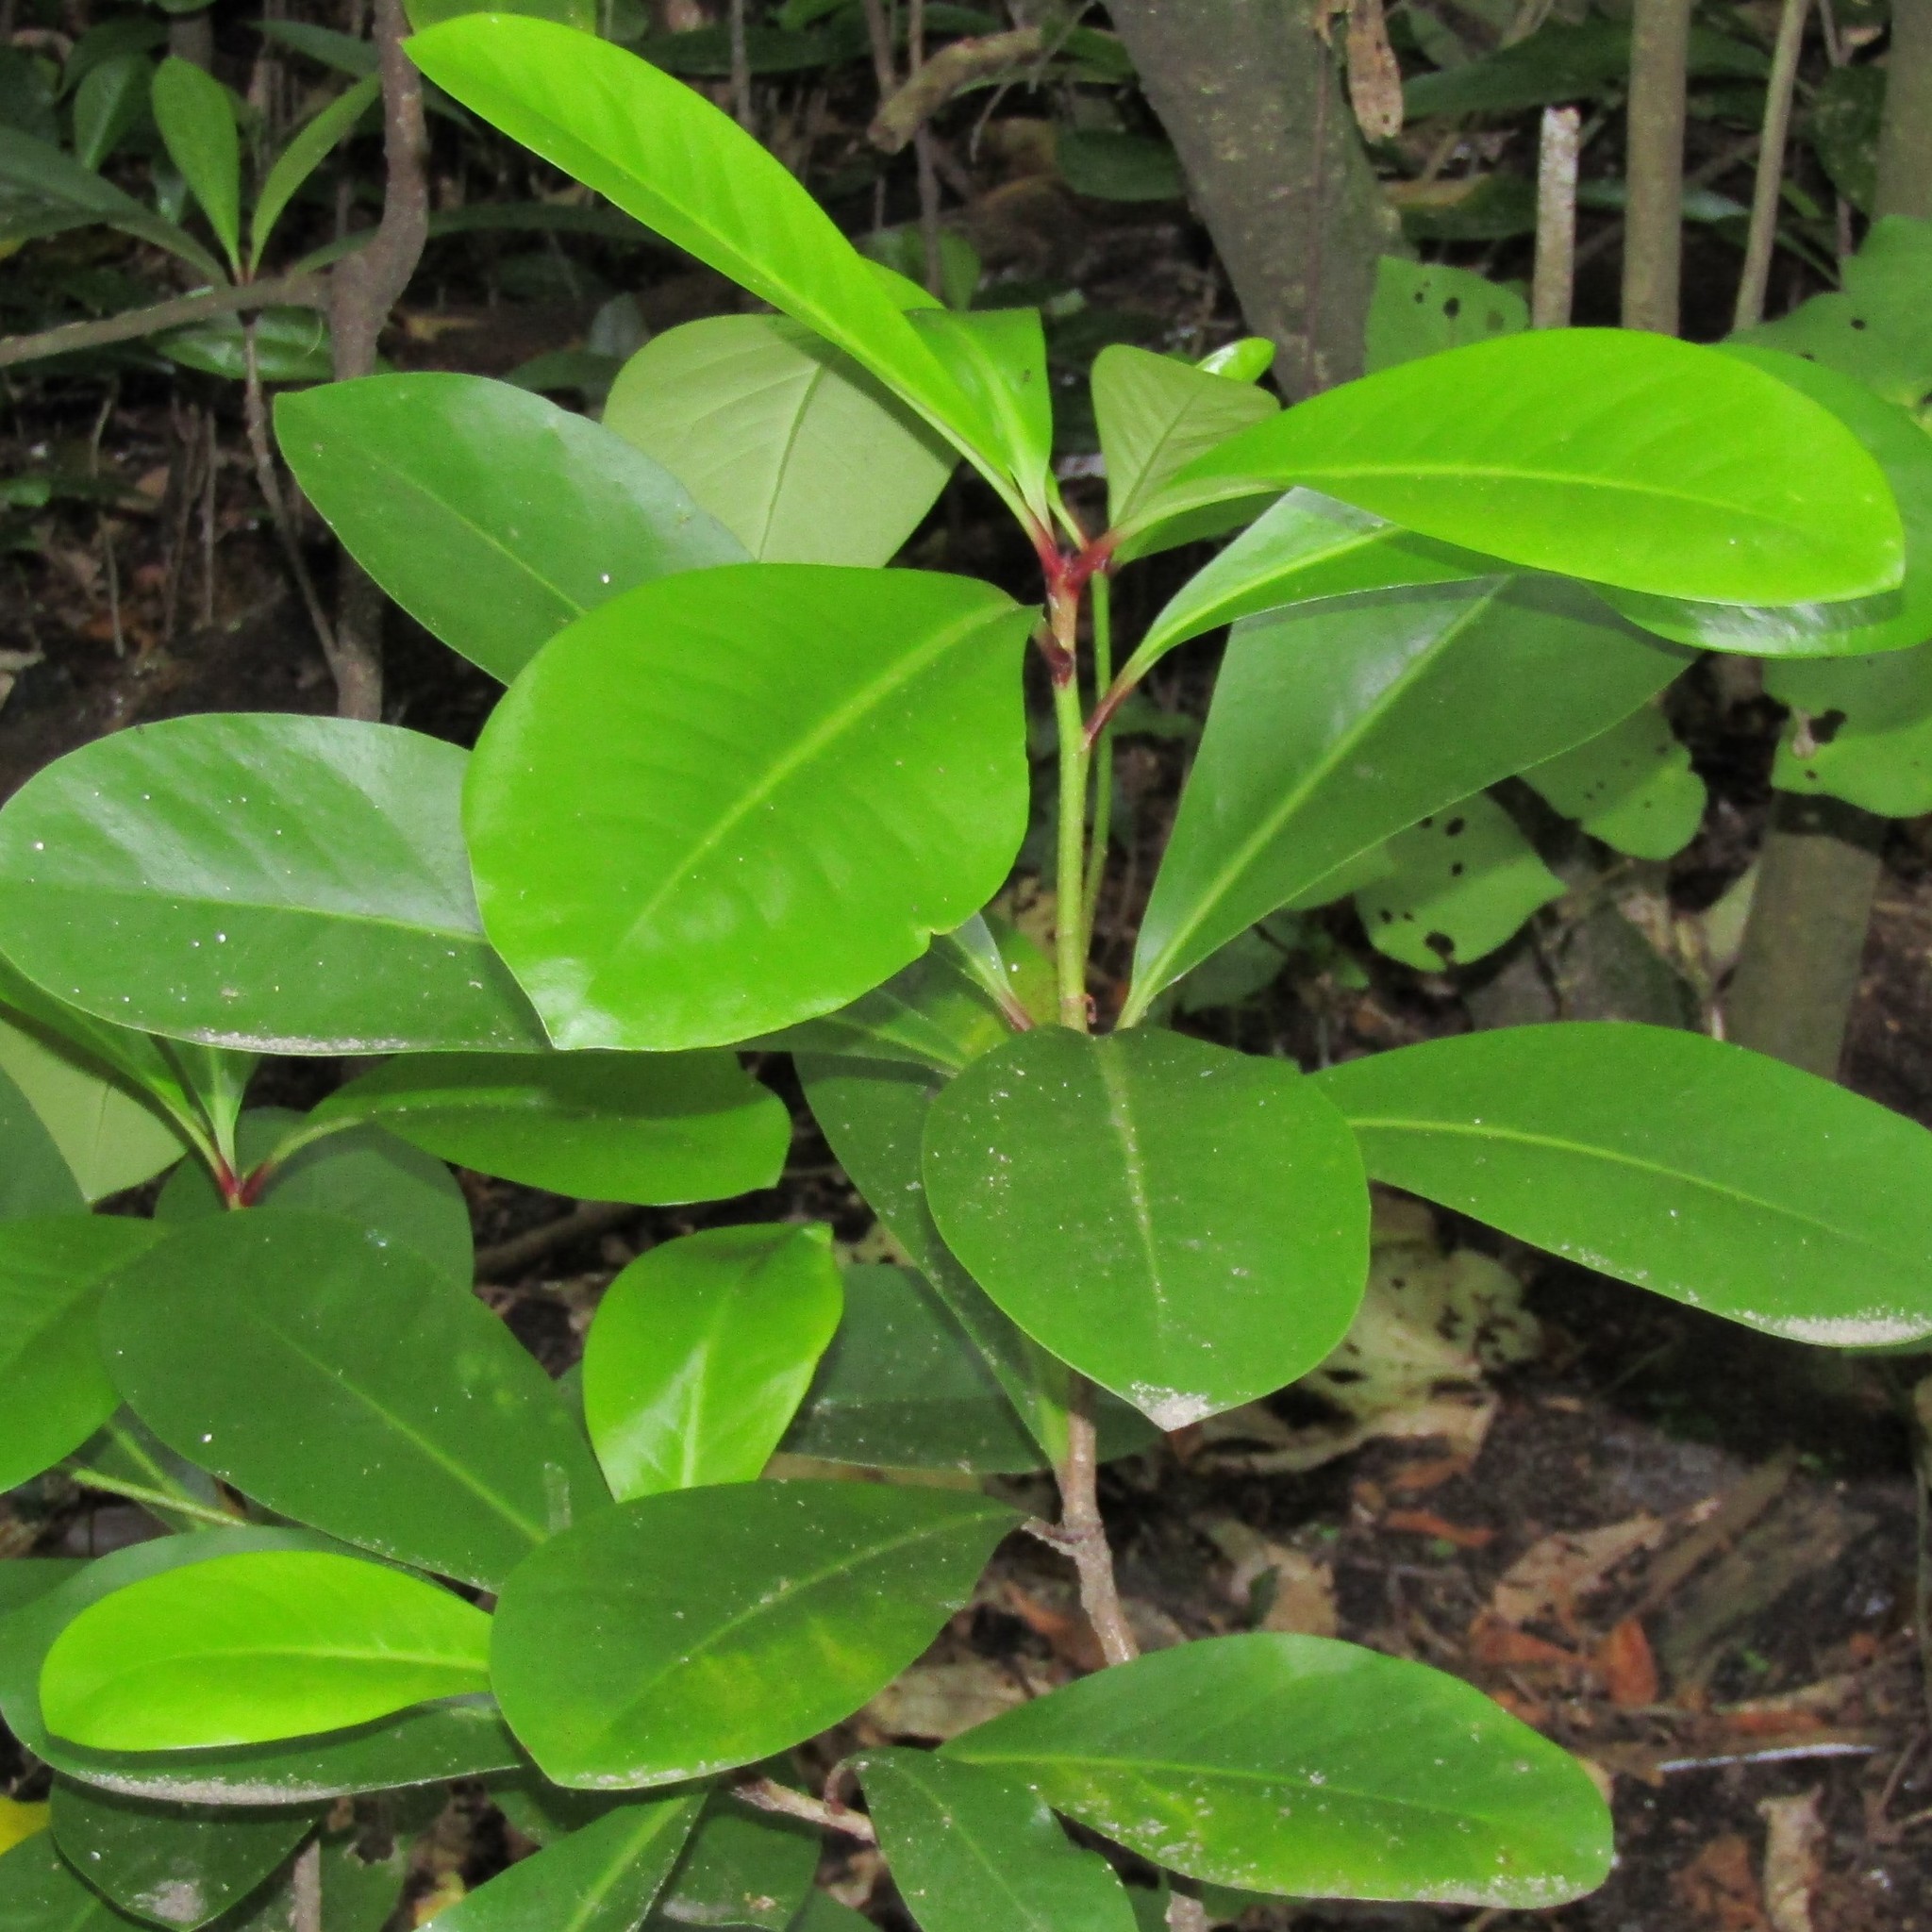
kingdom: Plantae
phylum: Tracheophyta
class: Magnoliopsida
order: Cucurbitales
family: Corynocarpaceae
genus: Corynocarpus
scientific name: Corynocarpus laevigatus
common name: New zealand laurel
